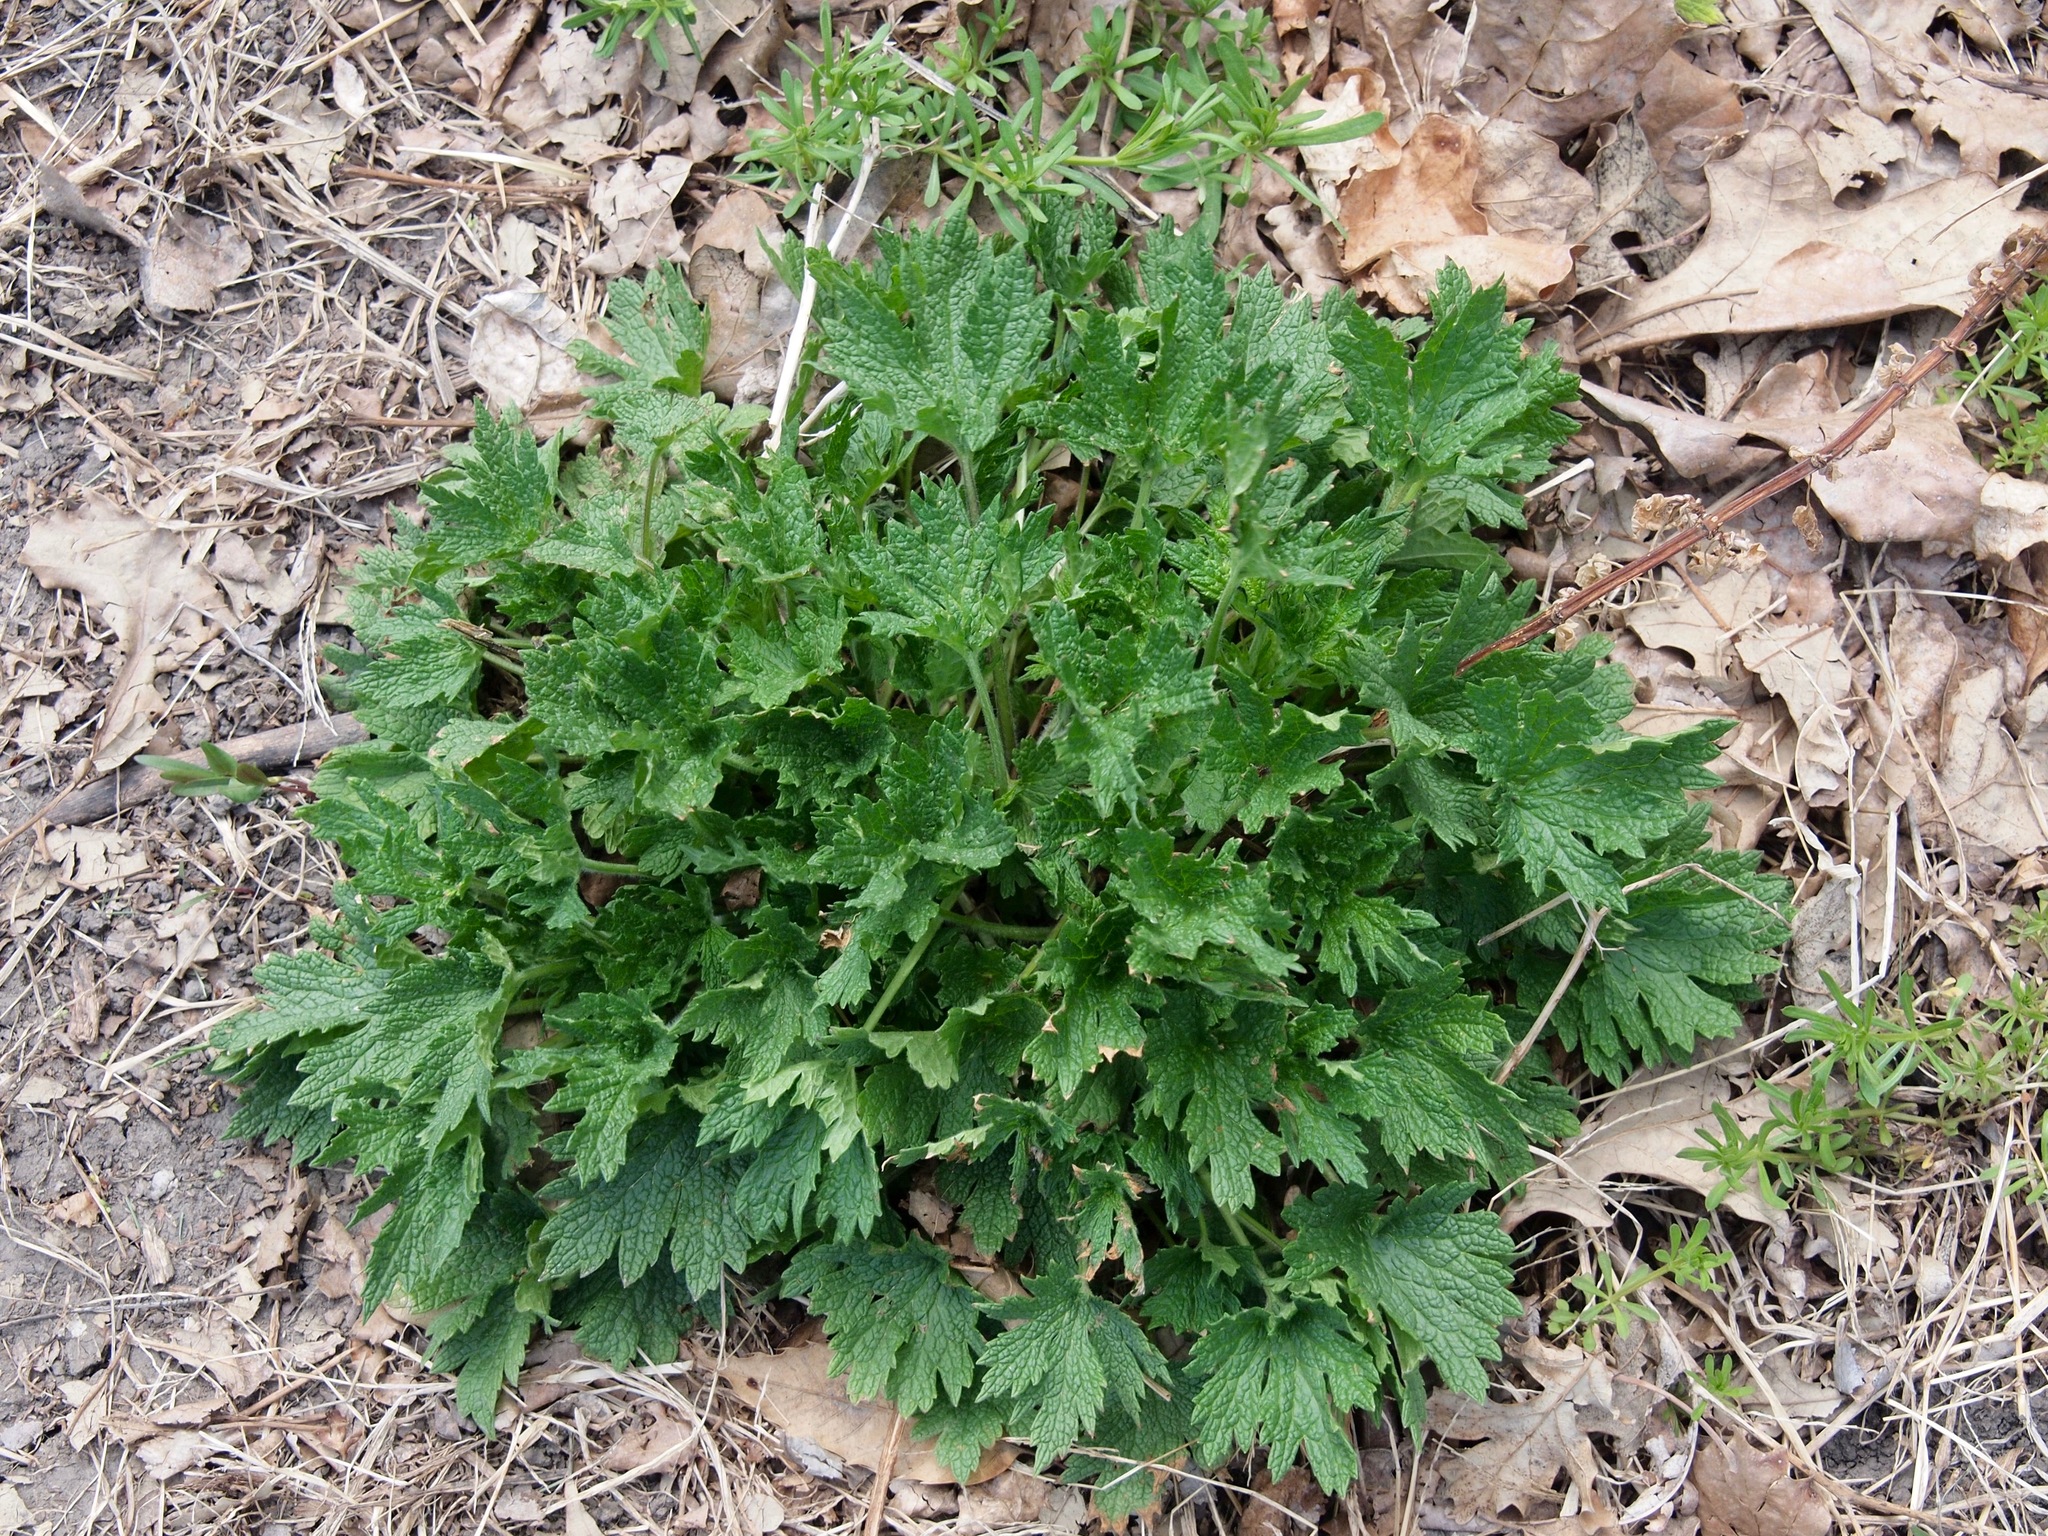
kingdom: Plantae
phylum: Tracheophyta
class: Magnoliopsida
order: Lamiales
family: Lamiaceae
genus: Leonurus
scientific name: Leonurus cardiaca
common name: Motherwort
